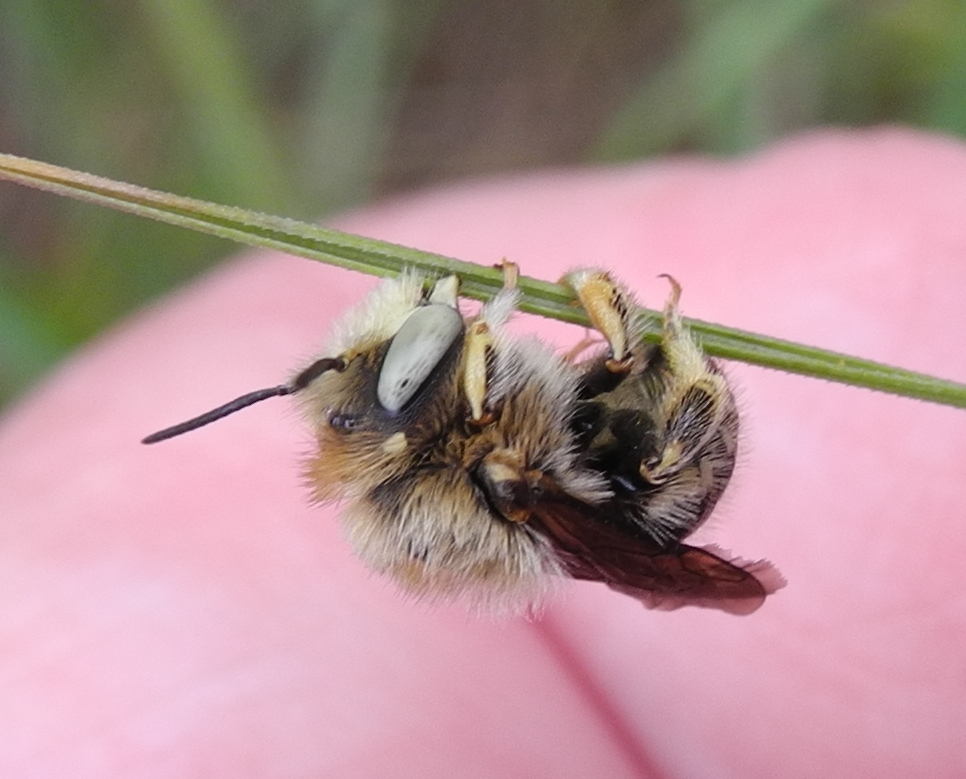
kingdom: Animalia
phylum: Arthropoda
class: Insecta
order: Hymenoptera
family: Megachilidae
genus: Anthidium
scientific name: Anthidium punctatum
